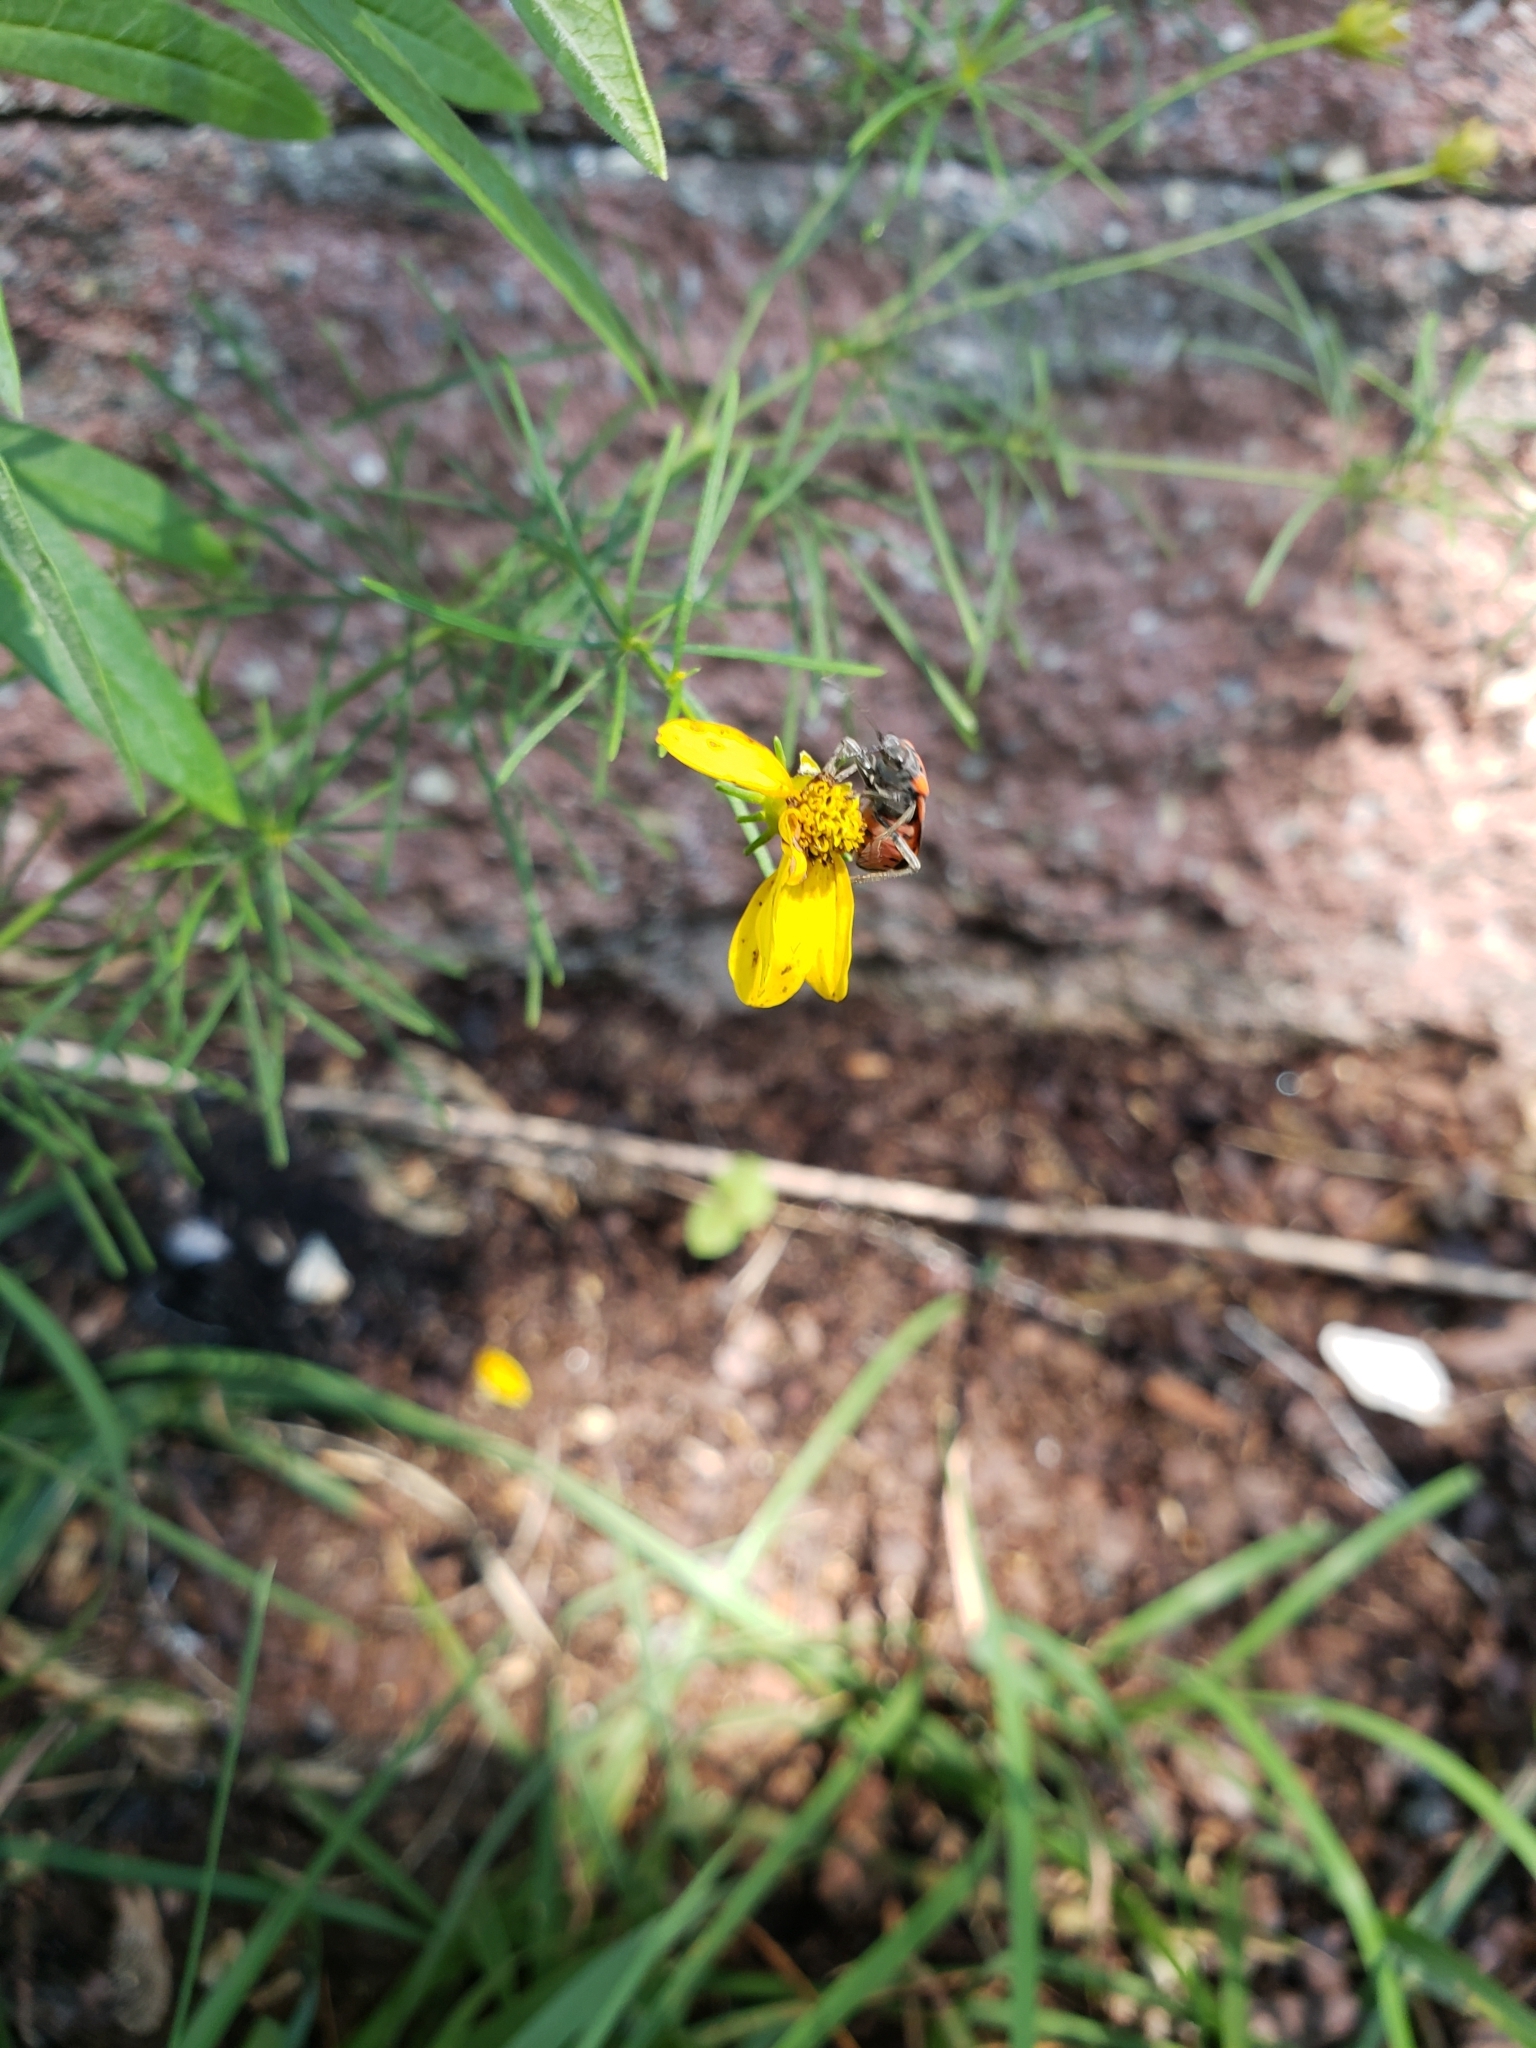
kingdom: Animalia
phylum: Arthropoda
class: Insecta
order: Hemiptera
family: Lygaeidae
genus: Lygaeus
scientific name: Lygaeus kalmii
